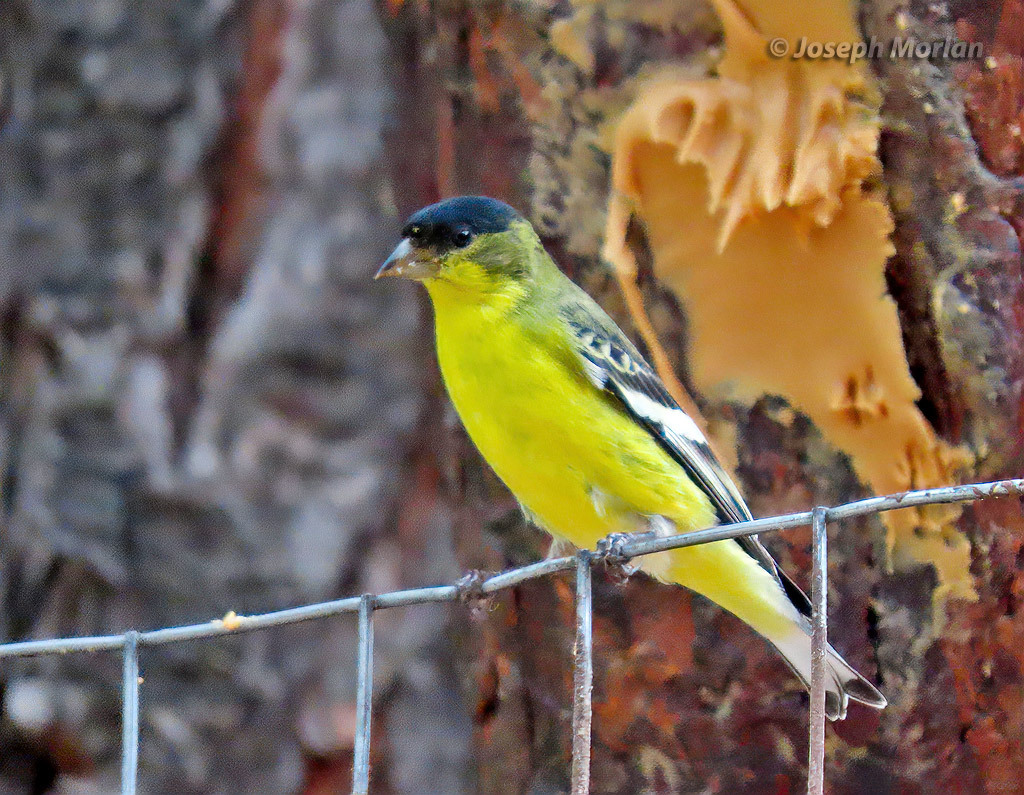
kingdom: Animalia
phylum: Chordata
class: Aves
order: Passeriformes
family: Fringillidae
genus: Spinus
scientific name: Spinus psaltria
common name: Lesser goldfinch
